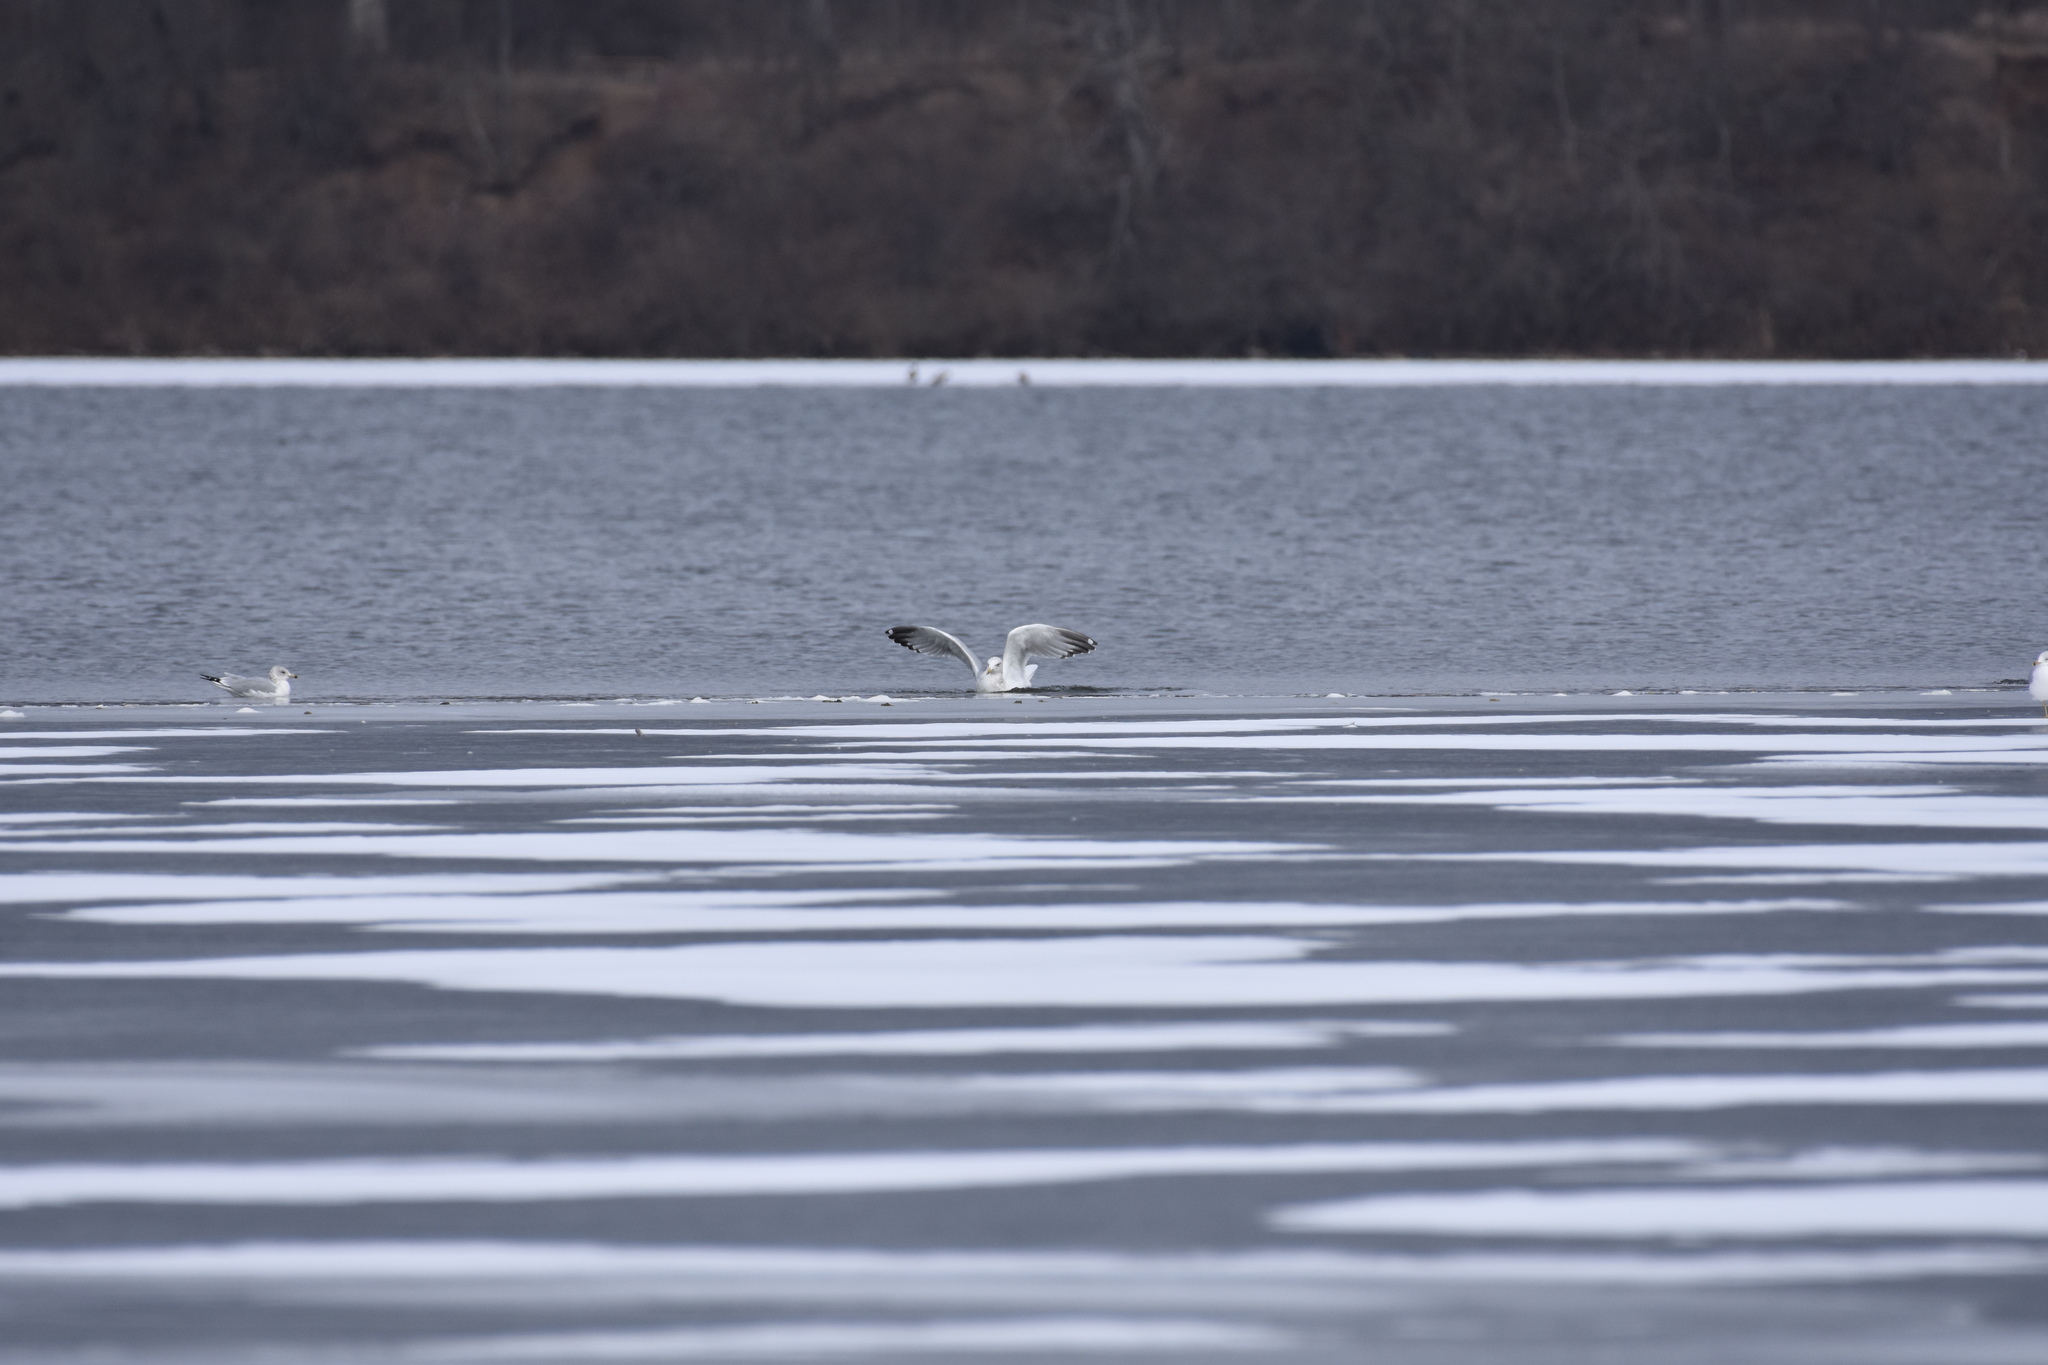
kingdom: Animalia
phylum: Chordata
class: Aves
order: Charadriiformes
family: Laridae
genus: Larus
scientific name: Larus argentatus
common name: Herring gull
